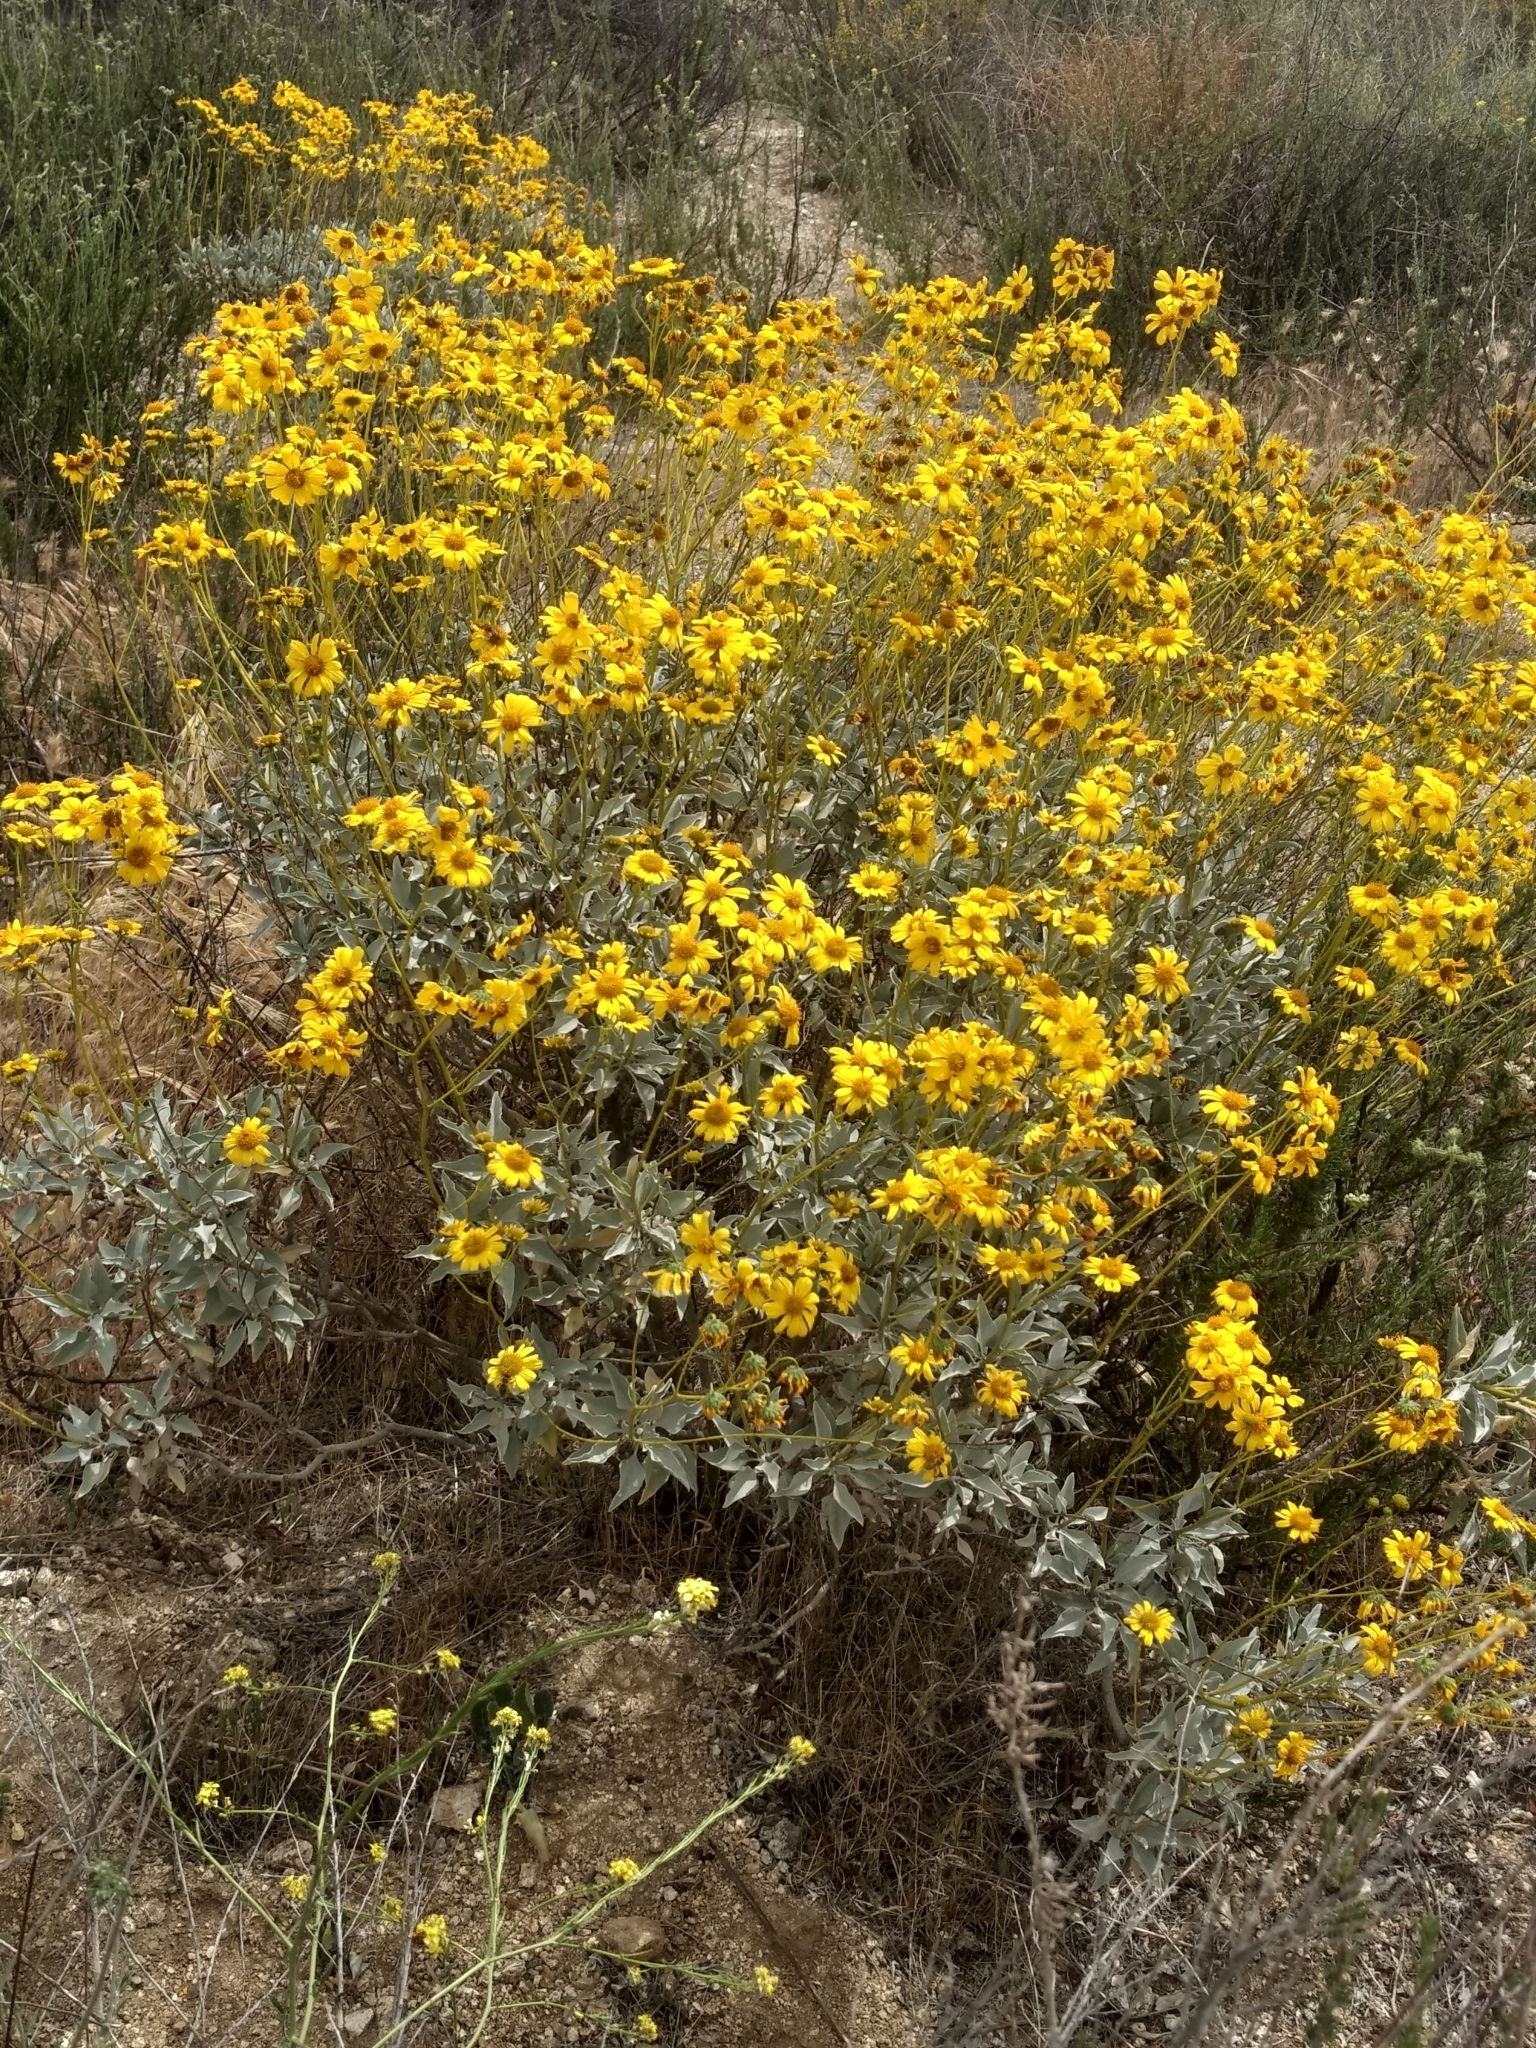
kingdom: Plantae
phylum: Tracheophyta
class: Magnoliopsida
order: Asterales
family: Asteraceae
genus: Encelia
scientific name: Encelia farinosa
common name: Brittlebush
